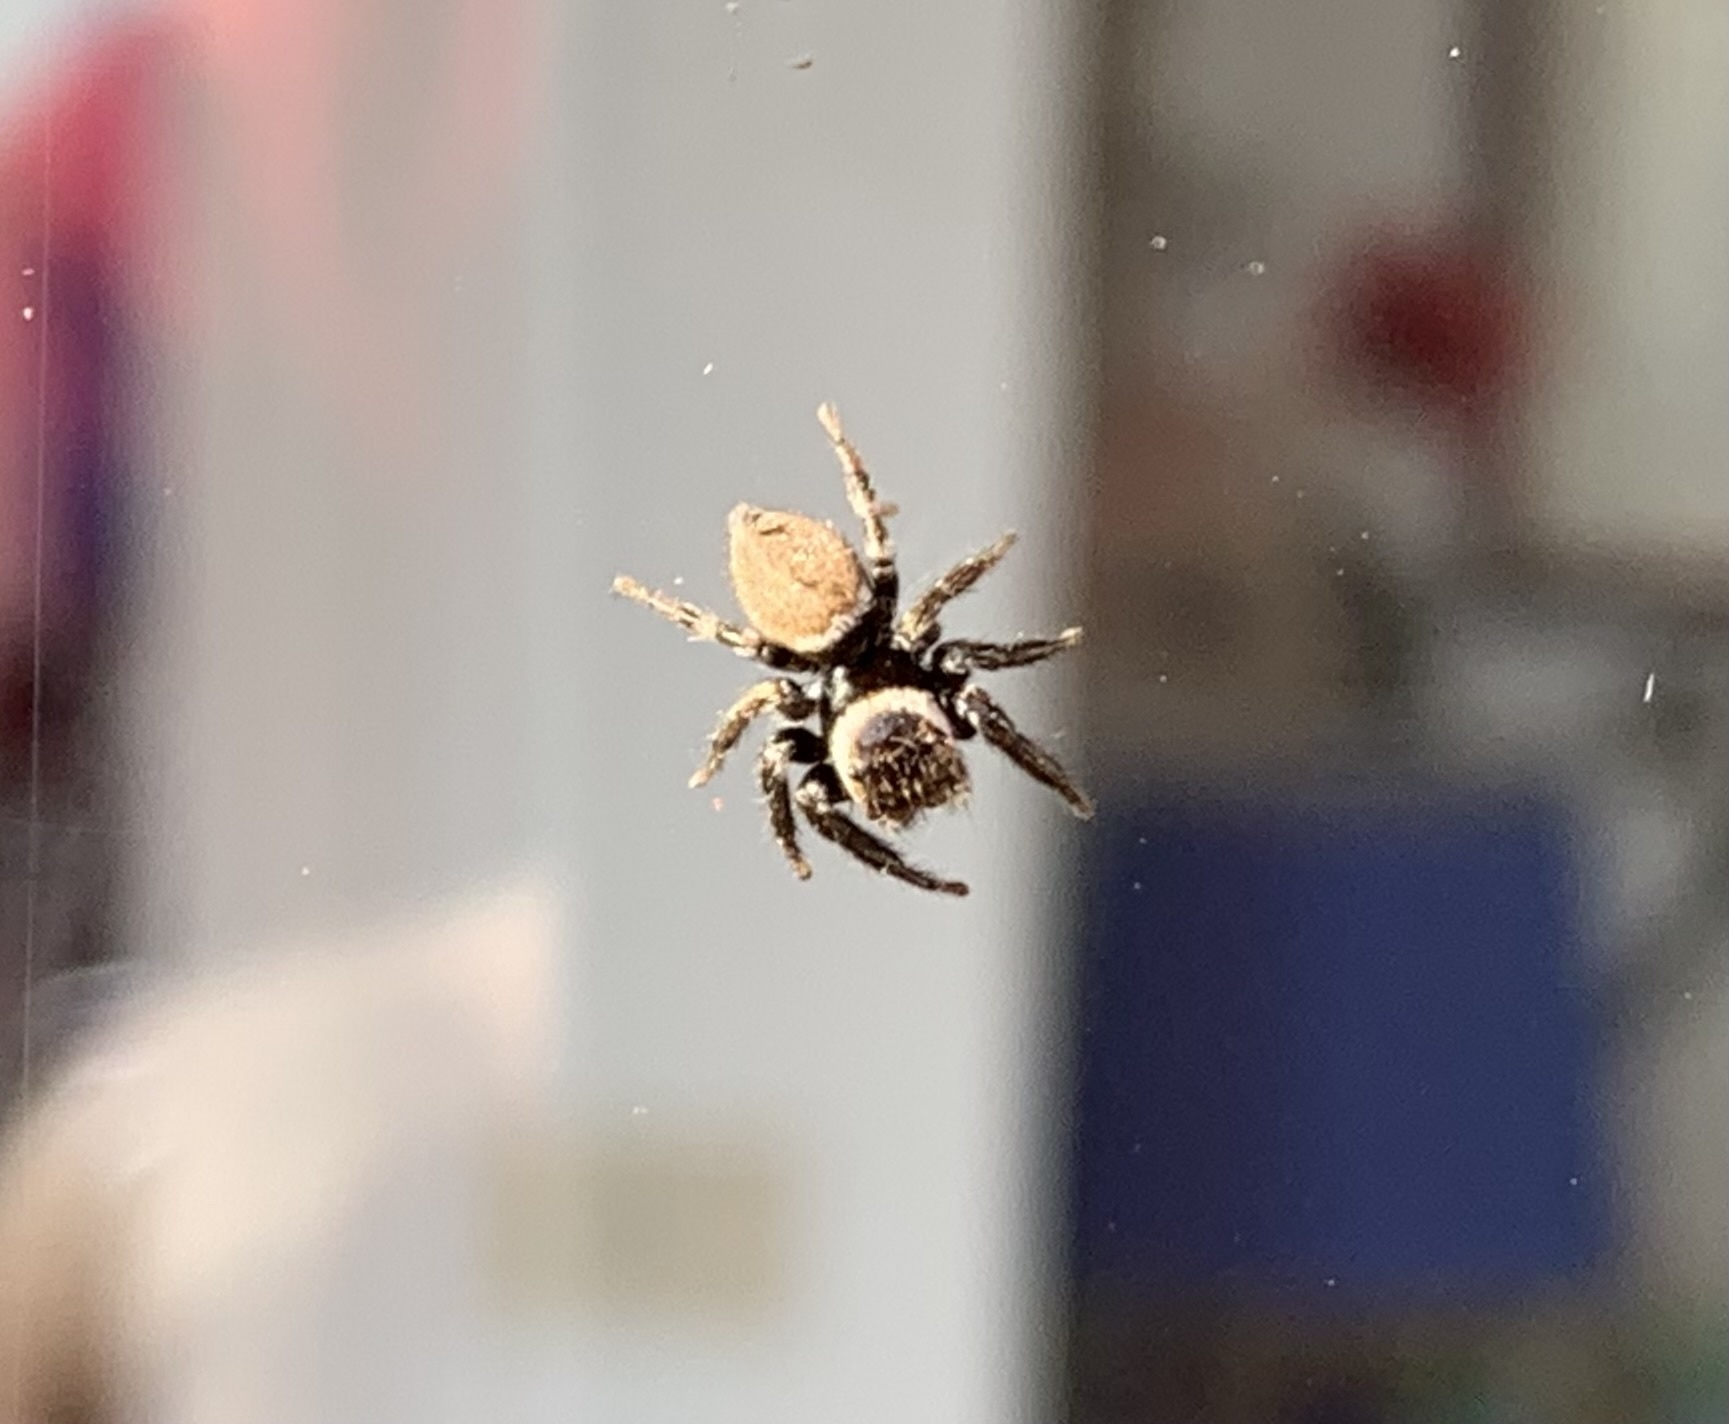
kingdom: Animalia
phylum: Arthropoda
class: Arachnida
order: Araneae
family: Salticidae
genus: Evarcha
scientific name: Evarcha jucunda
